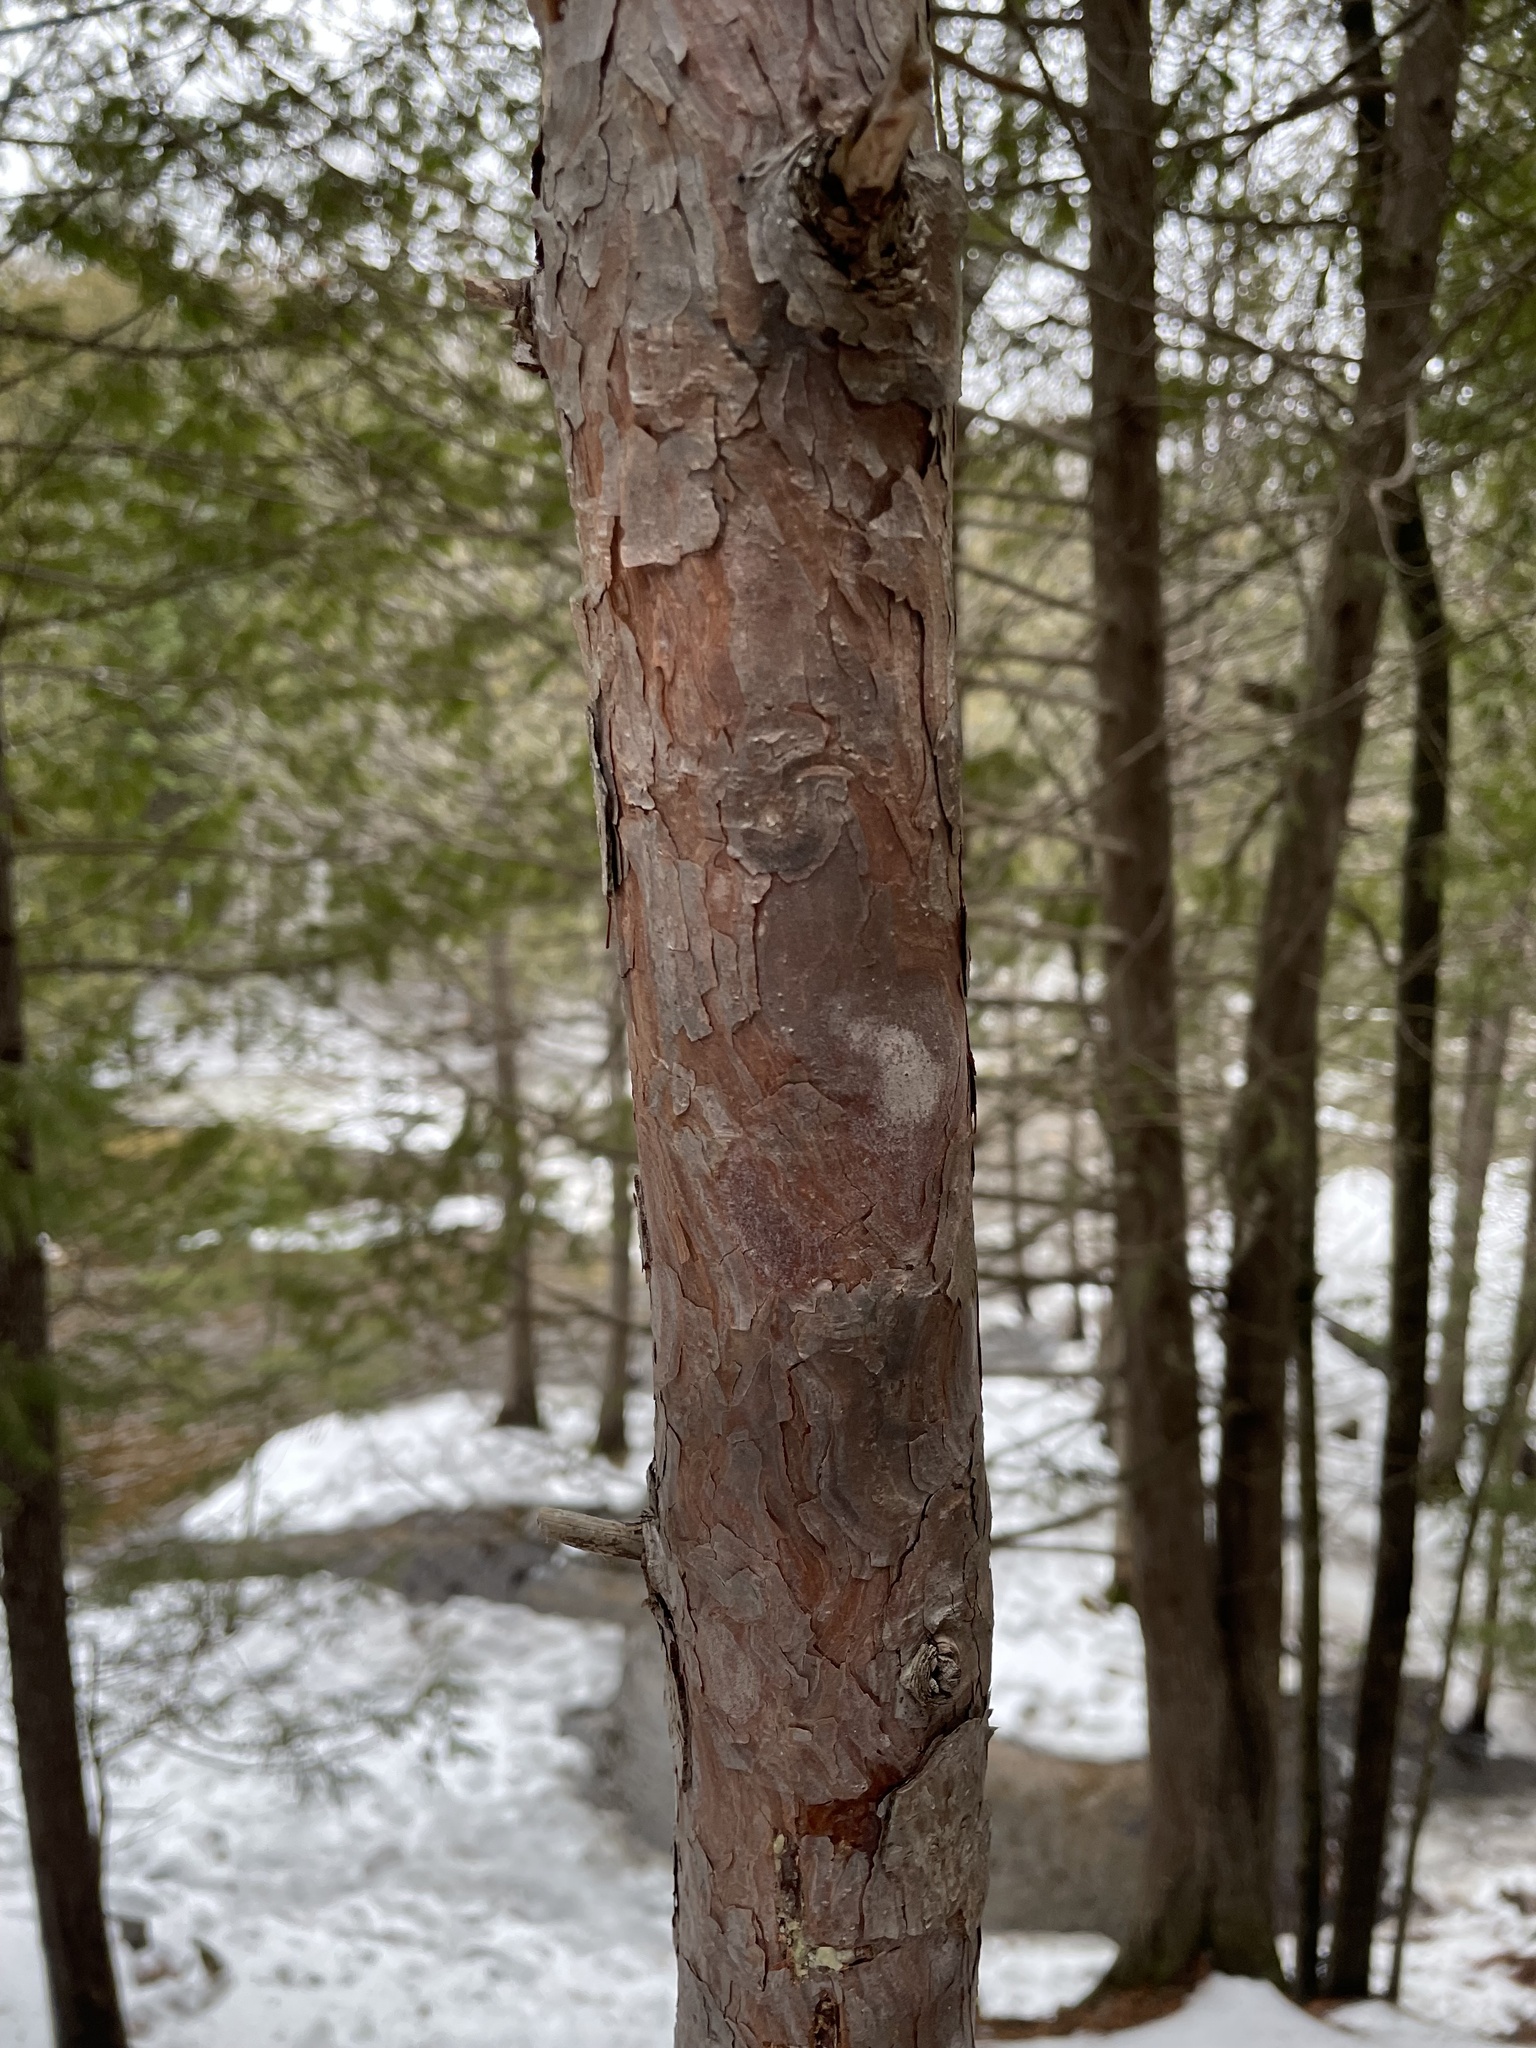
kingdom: Plantae
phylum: Tracheophyta
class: Pinopsida
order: Pinales
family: Pinaceae
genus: Pinus
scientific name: Pinus resinosa
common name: Norway pine
